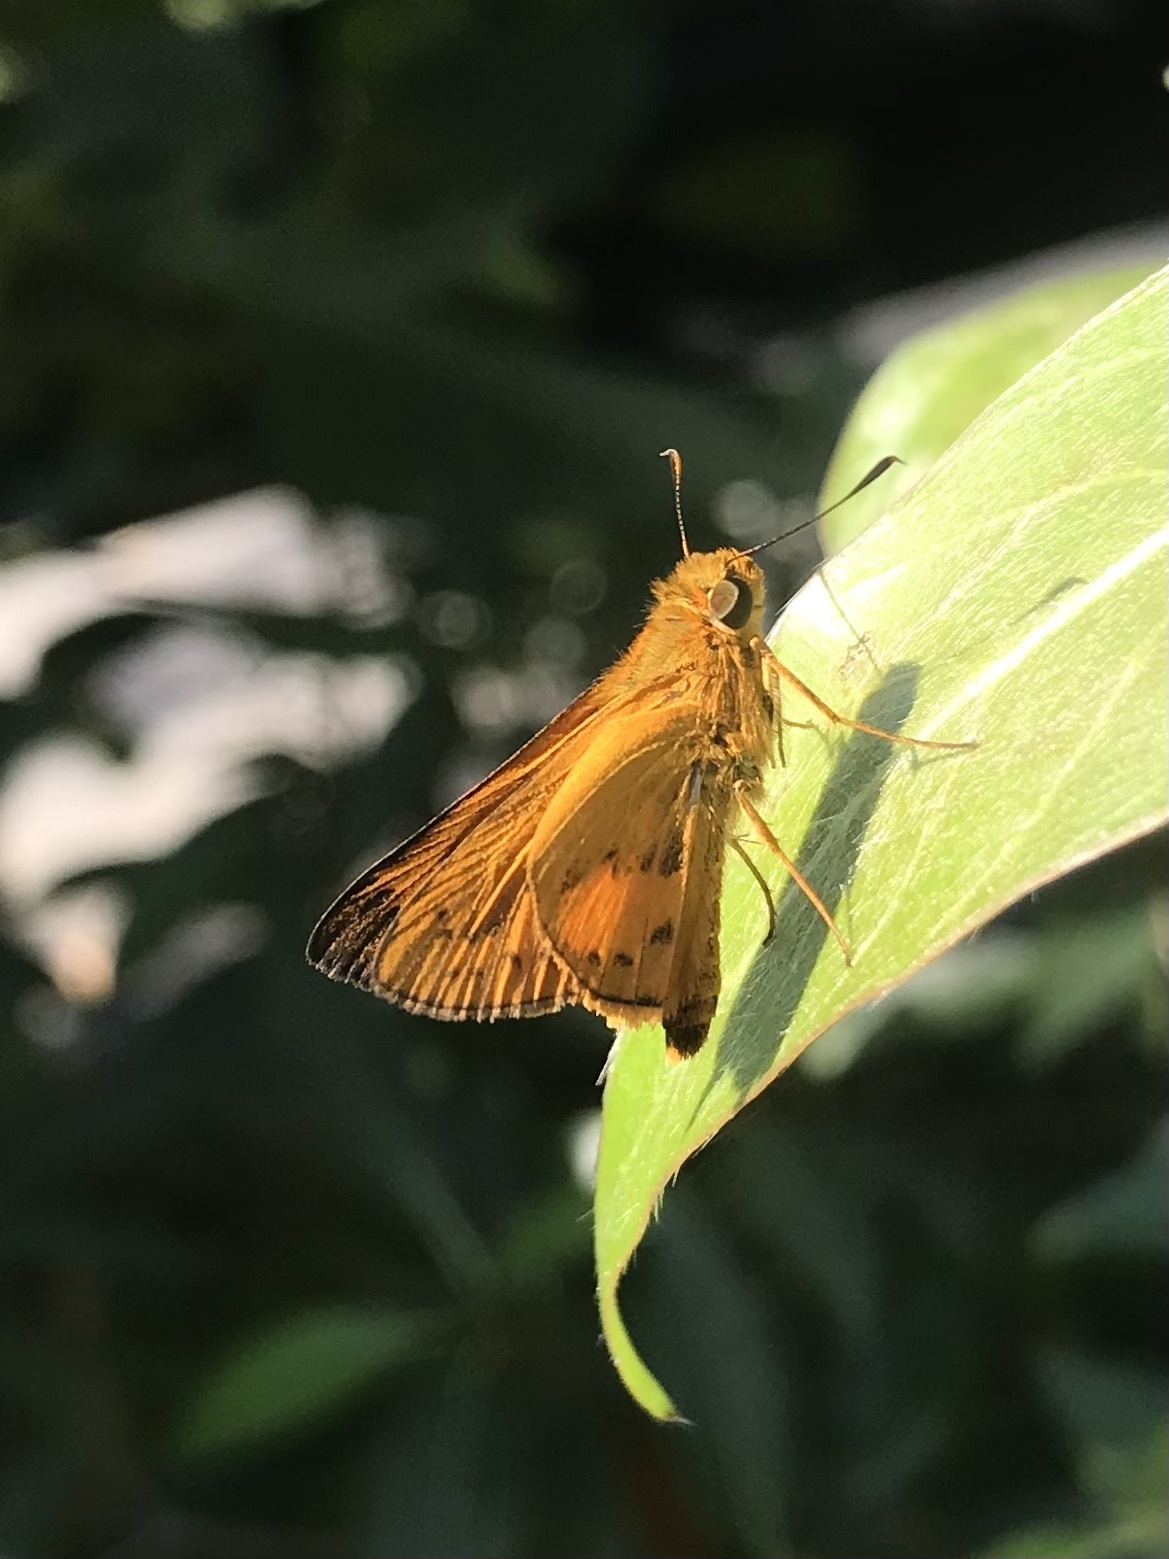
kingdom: Animalia
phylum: Arthropoda
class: Insecta
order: Lepidoptera
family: Hesperiidae
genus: Telicota
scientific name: Telicota augias
